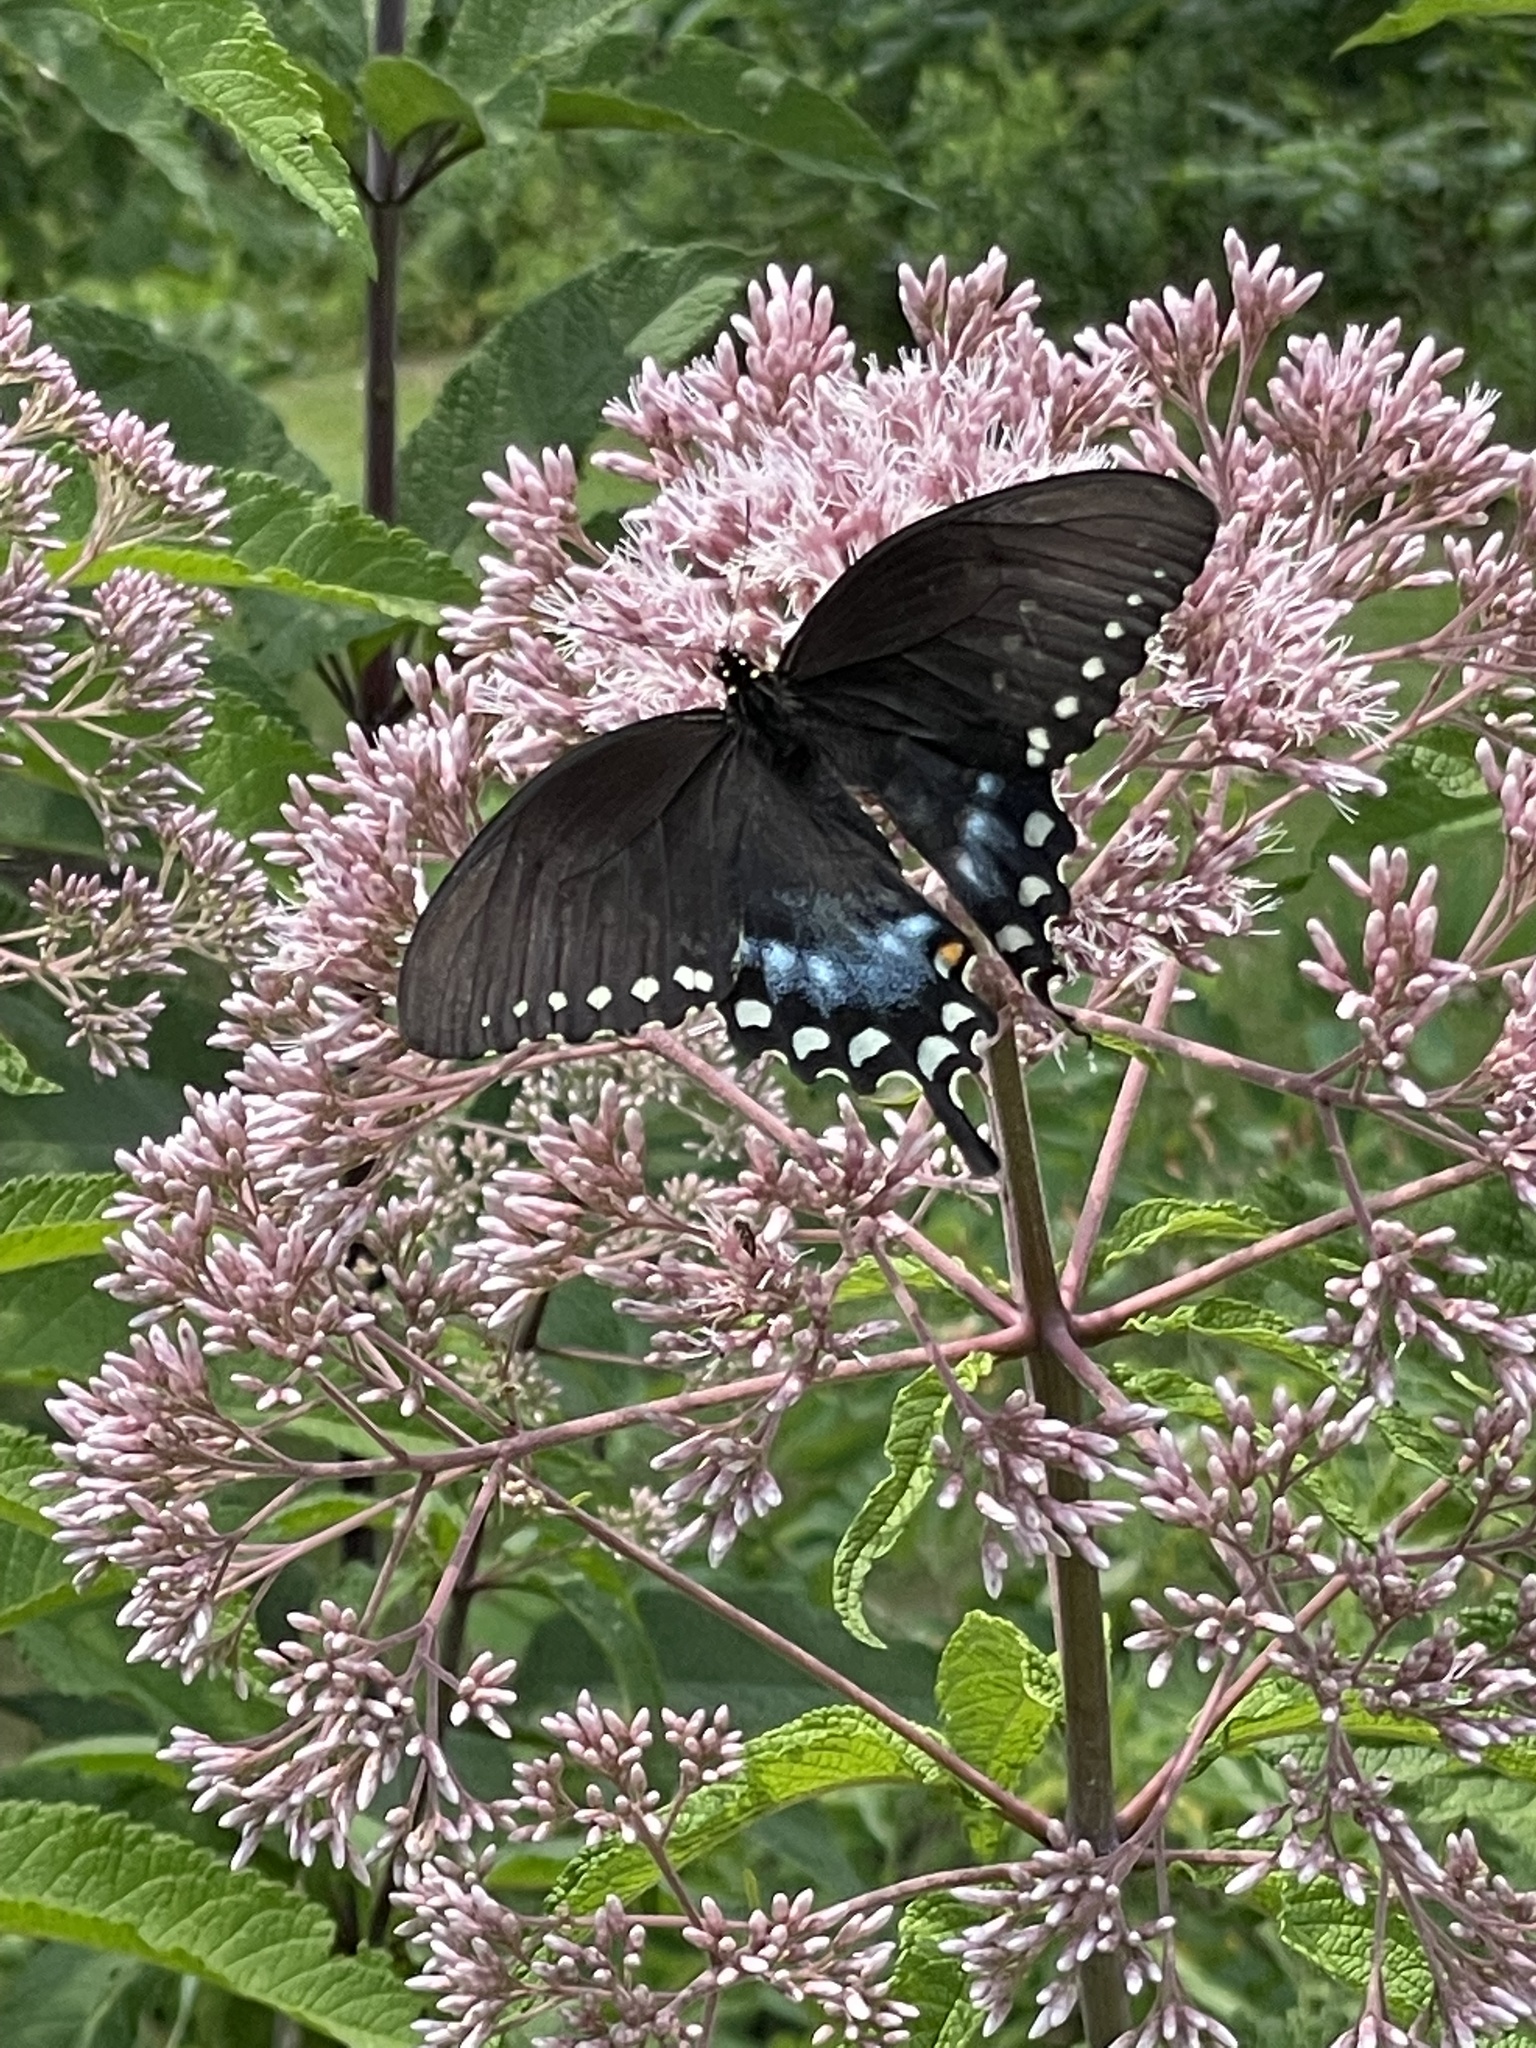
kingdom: Animalia
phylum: Arthropoda
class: Insecta
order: Lepidoptera
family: Papilionidae
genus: Papilio
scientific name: Papilio troilus
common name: Spicebush swallowtail
